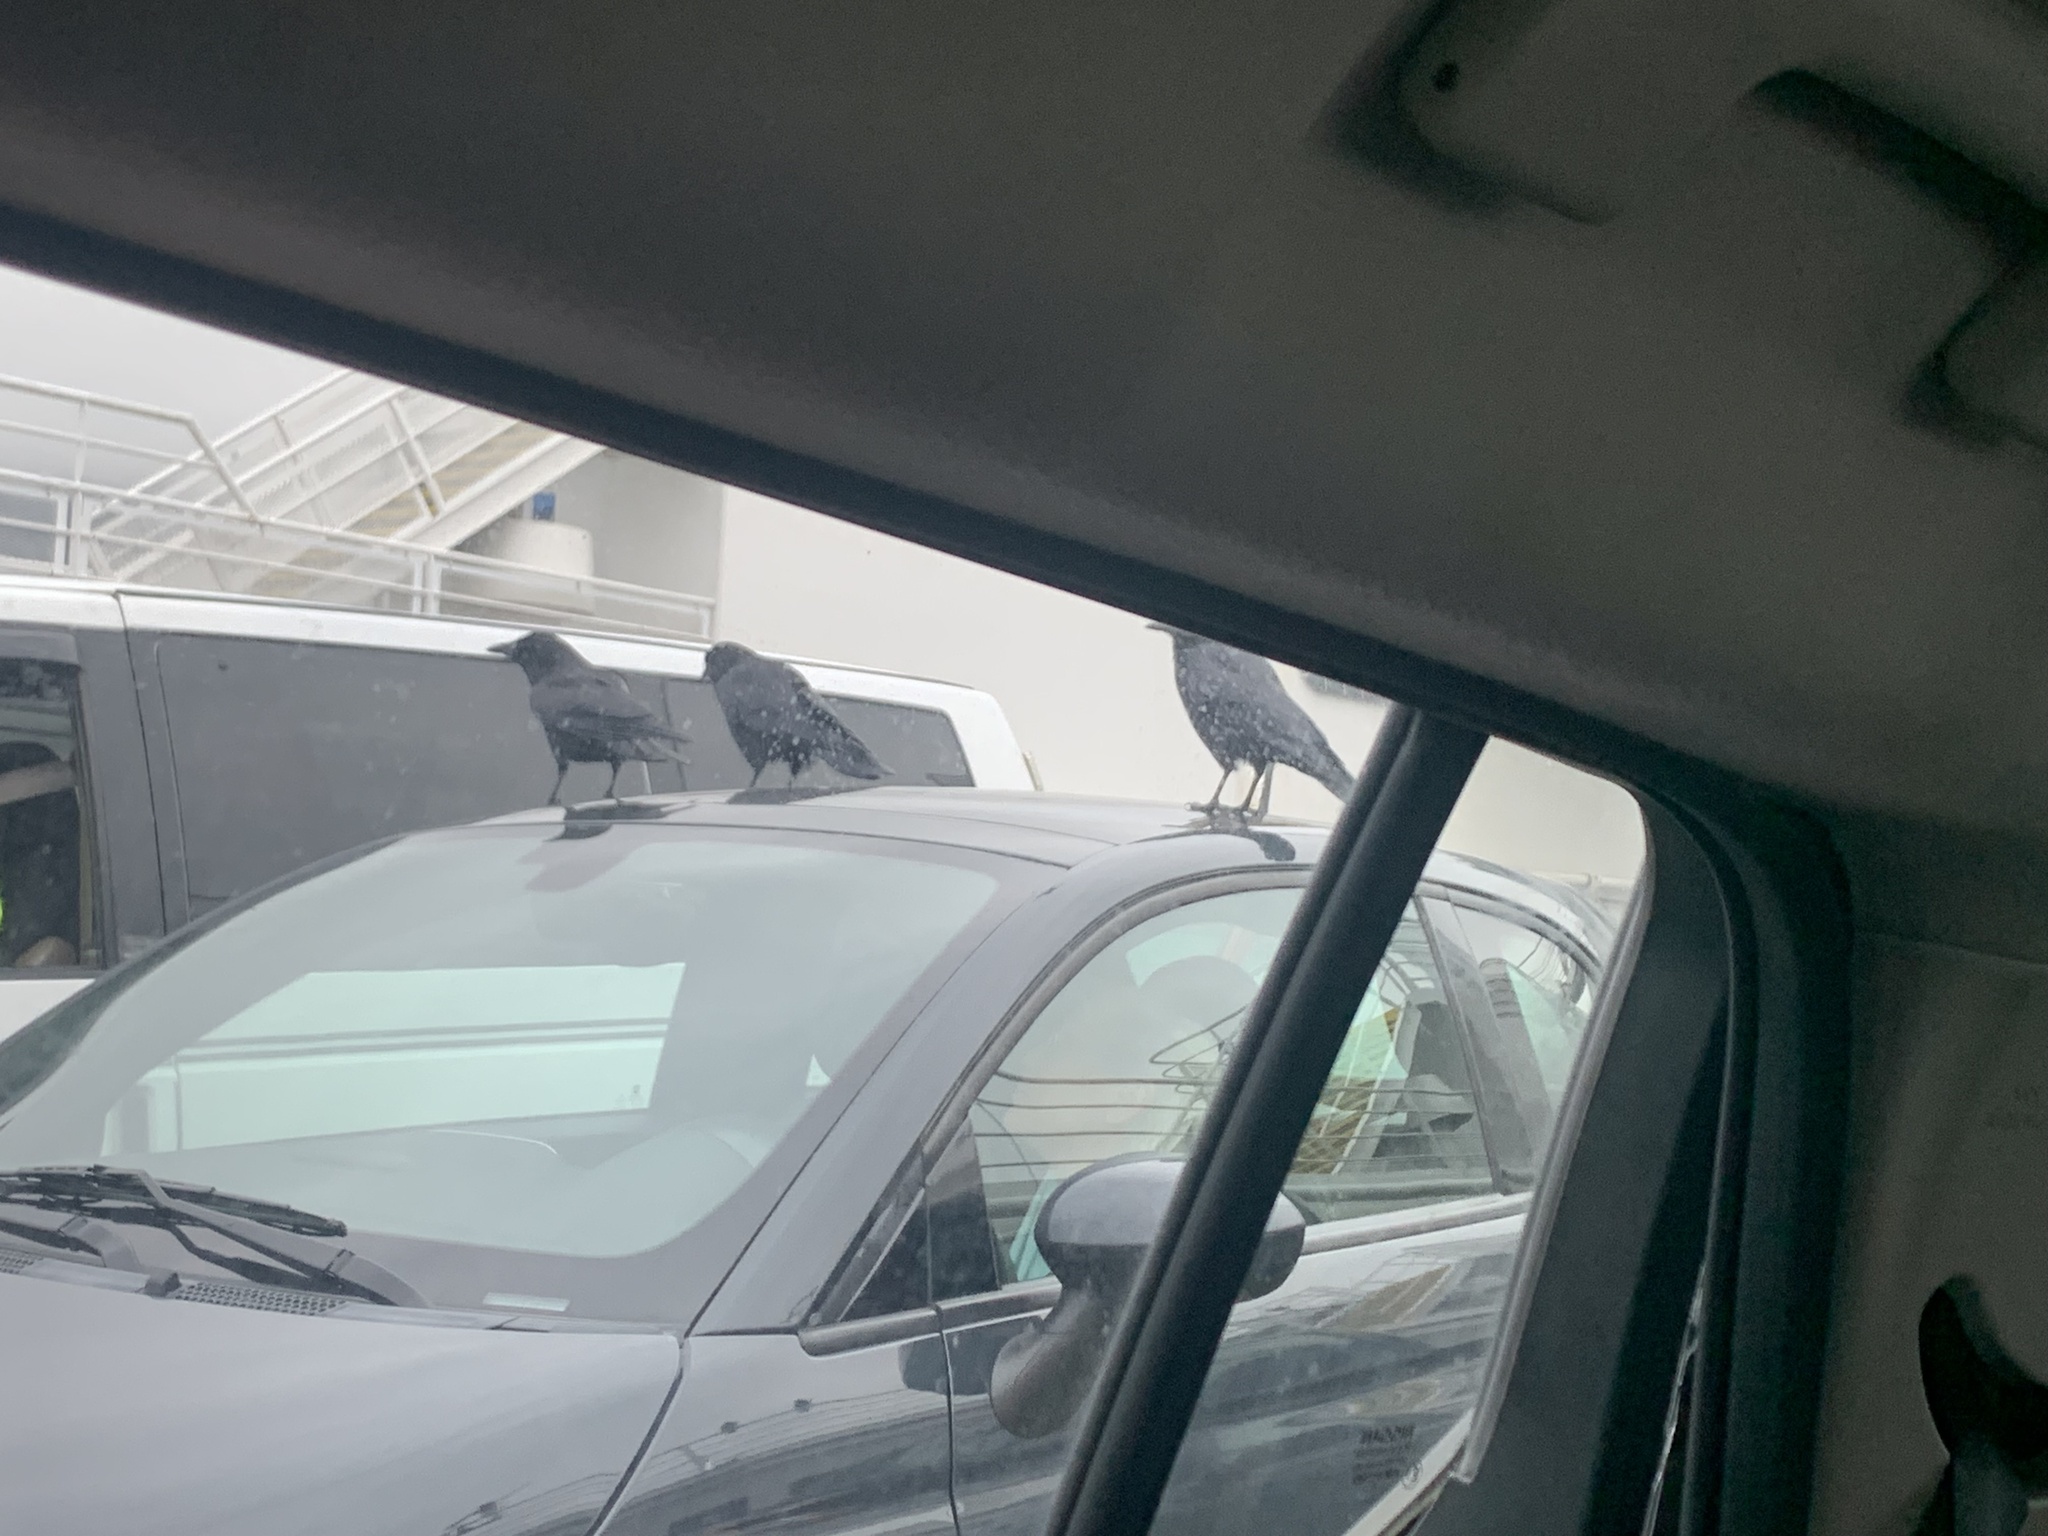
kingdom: Animalia
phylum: Chordata
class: Aves
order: Passeriformes
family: Corvidae
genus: Corvus
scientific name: Corvus brachyrhynchos
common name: American crow
